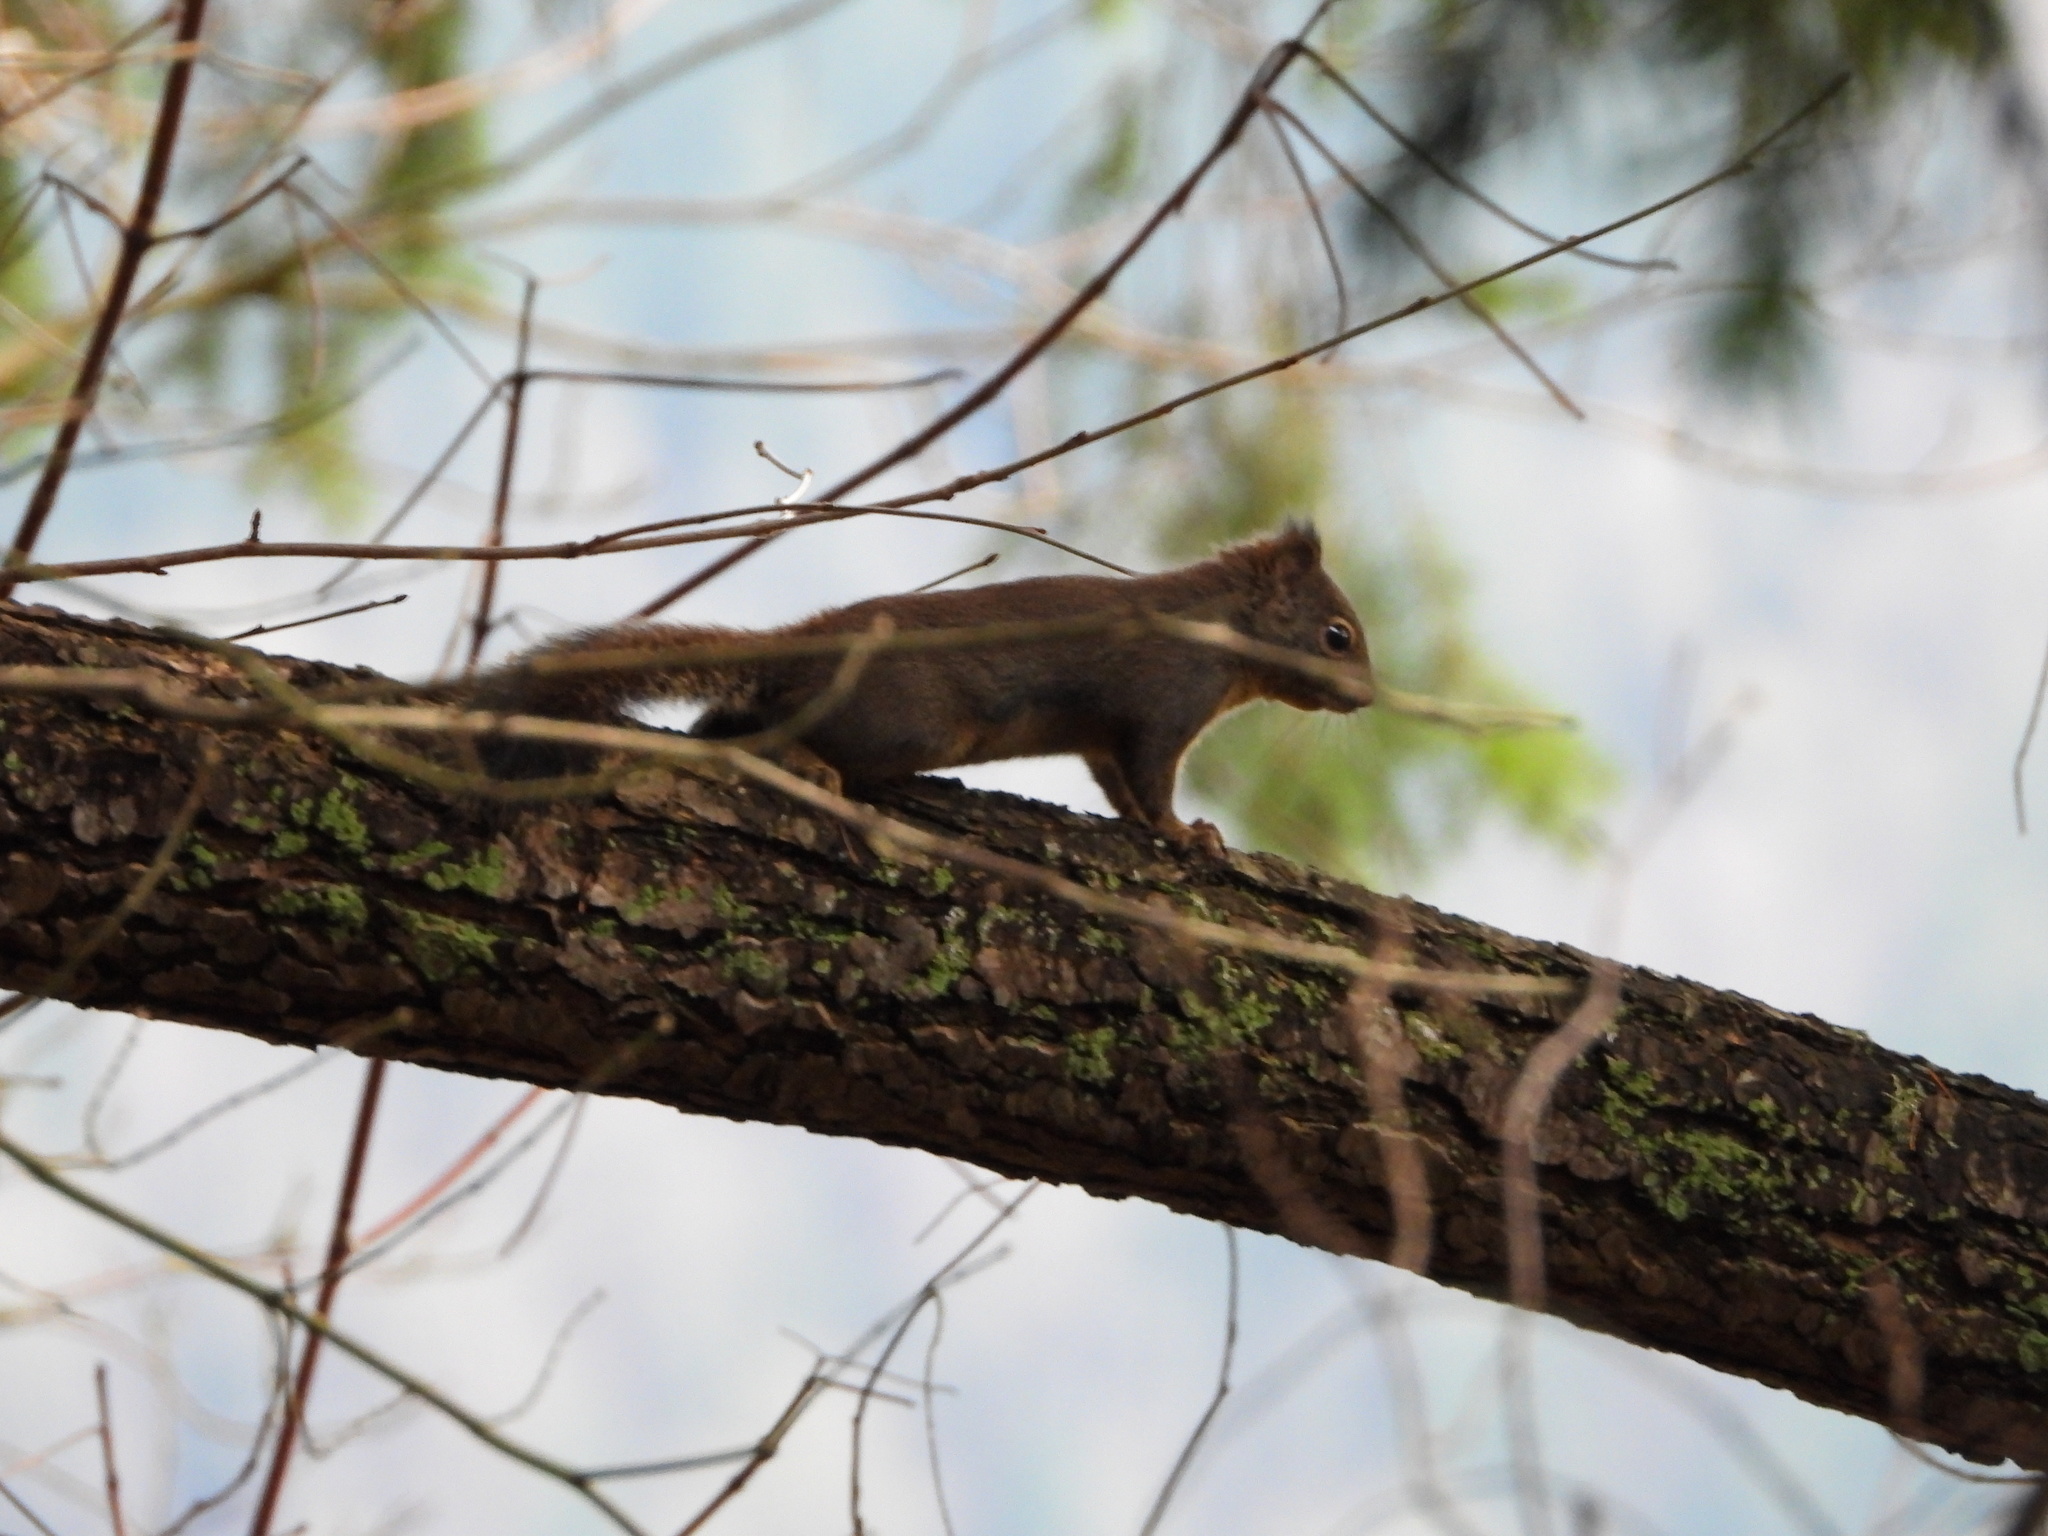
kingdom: Animalia
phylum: Chordata
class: Mammalia
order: Rodentia
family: Sciuridae
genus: Tamiasciurus
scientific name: Tamiasciurus douglasii
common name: Douglas's squirrel
